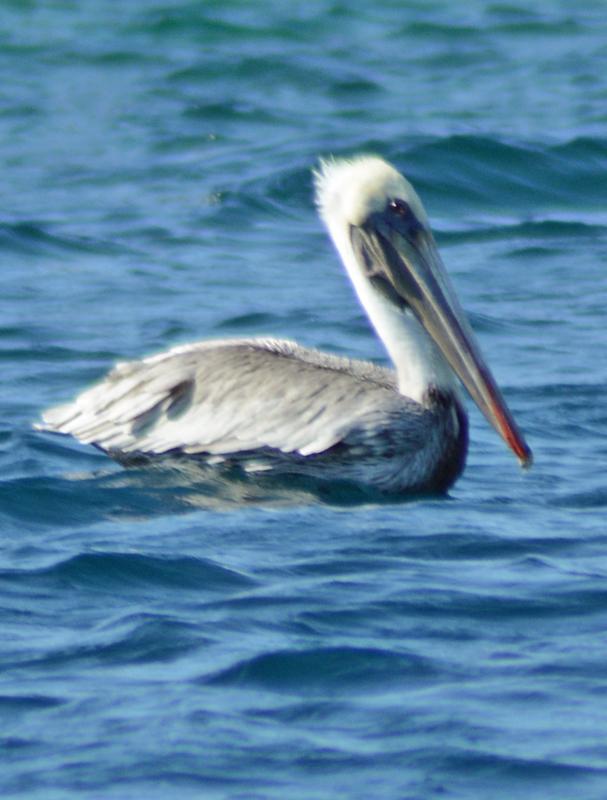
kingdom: Animalia
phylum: Chordata
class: Aves
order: Pelecaniformes
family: Pelecanidae
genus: Pelecanus
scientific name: Pelecanus occidentalis
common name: Brown pelican
